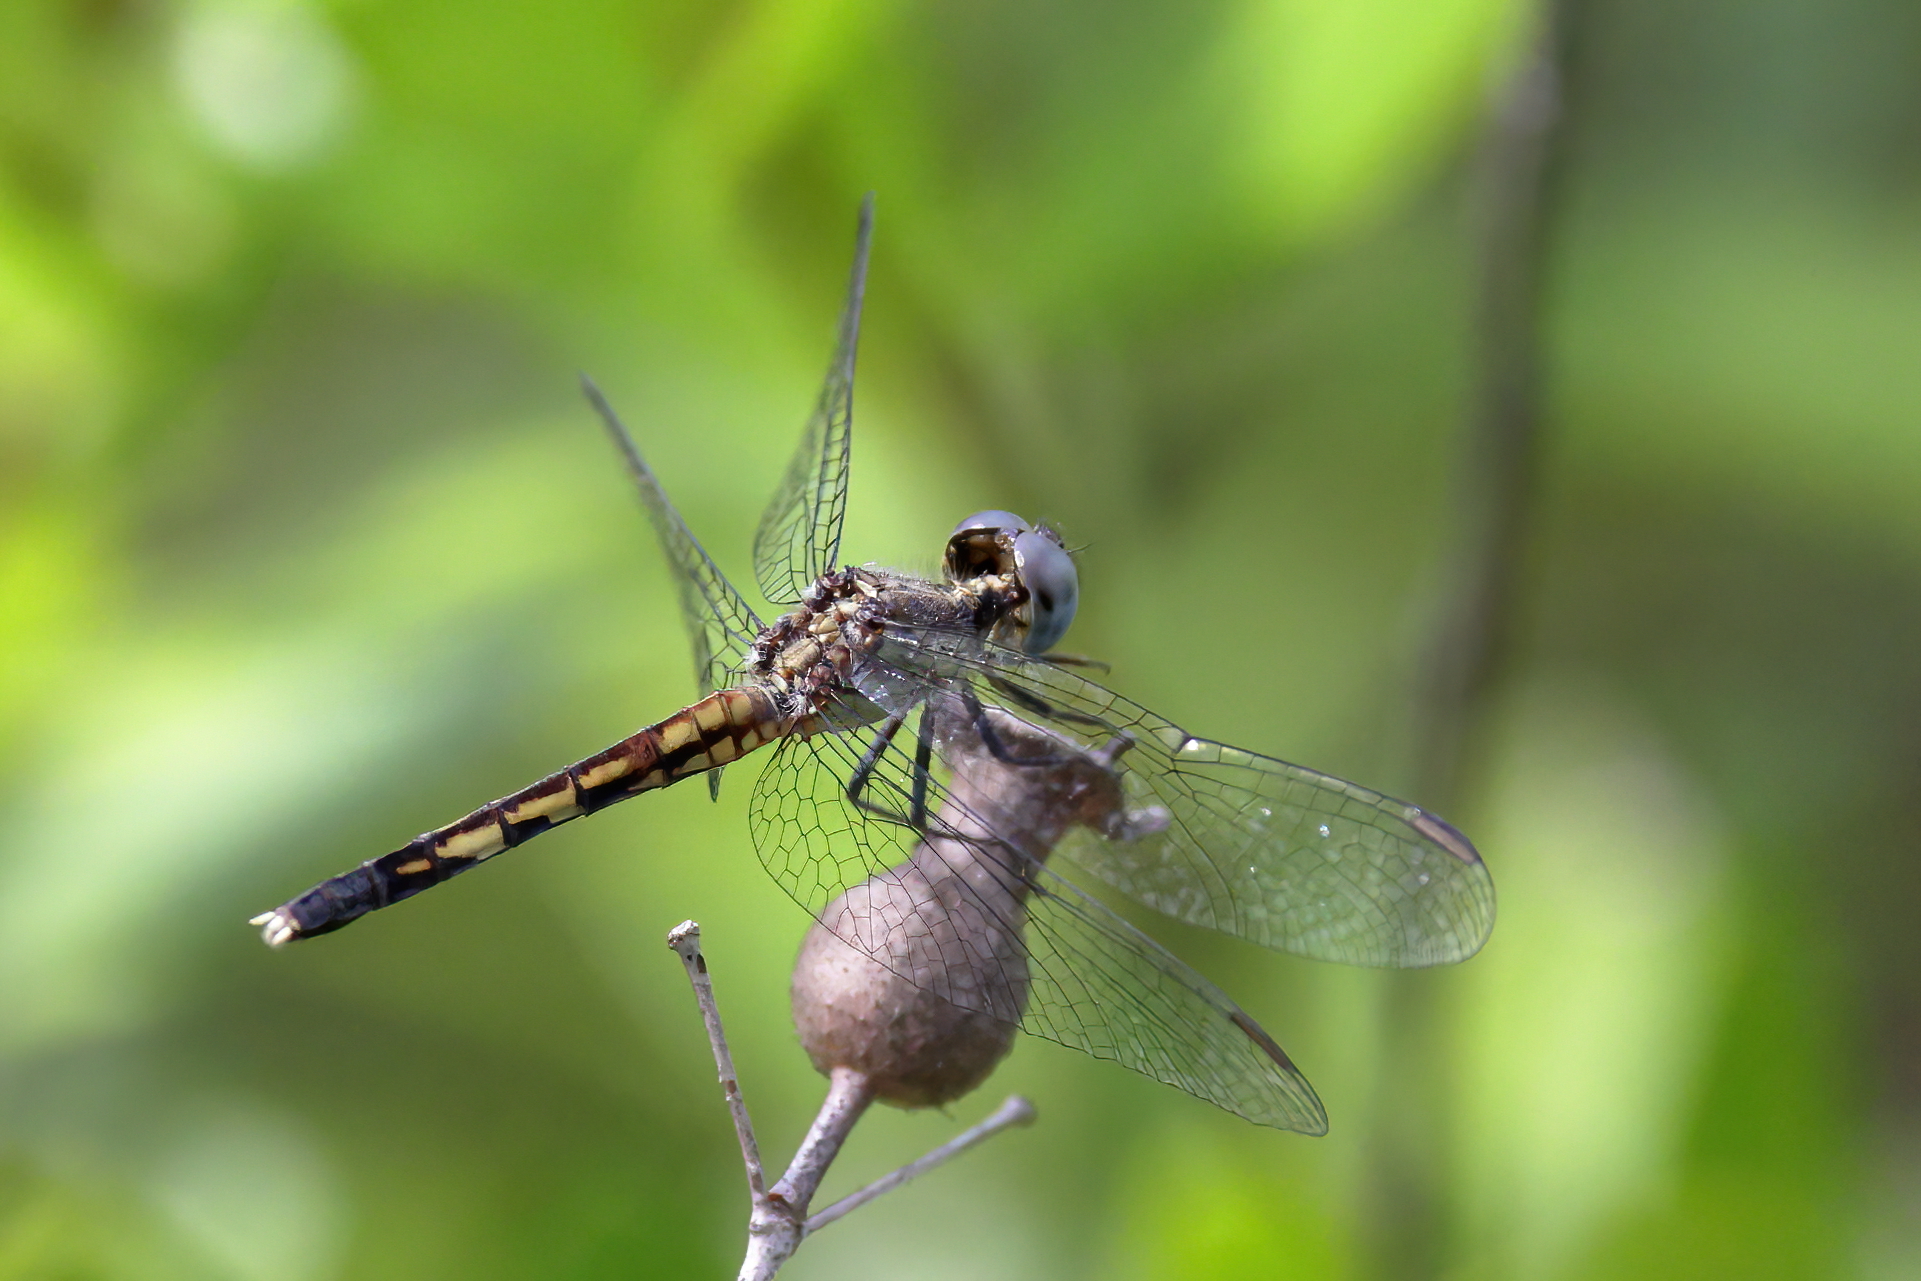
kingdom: Animalia
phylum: Arthropoda
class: Insecta
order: Odonata
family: Libellulidae
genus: Erythrodiplax
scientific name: Erythrodiplax minuscula
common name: Little blue dragonlet
